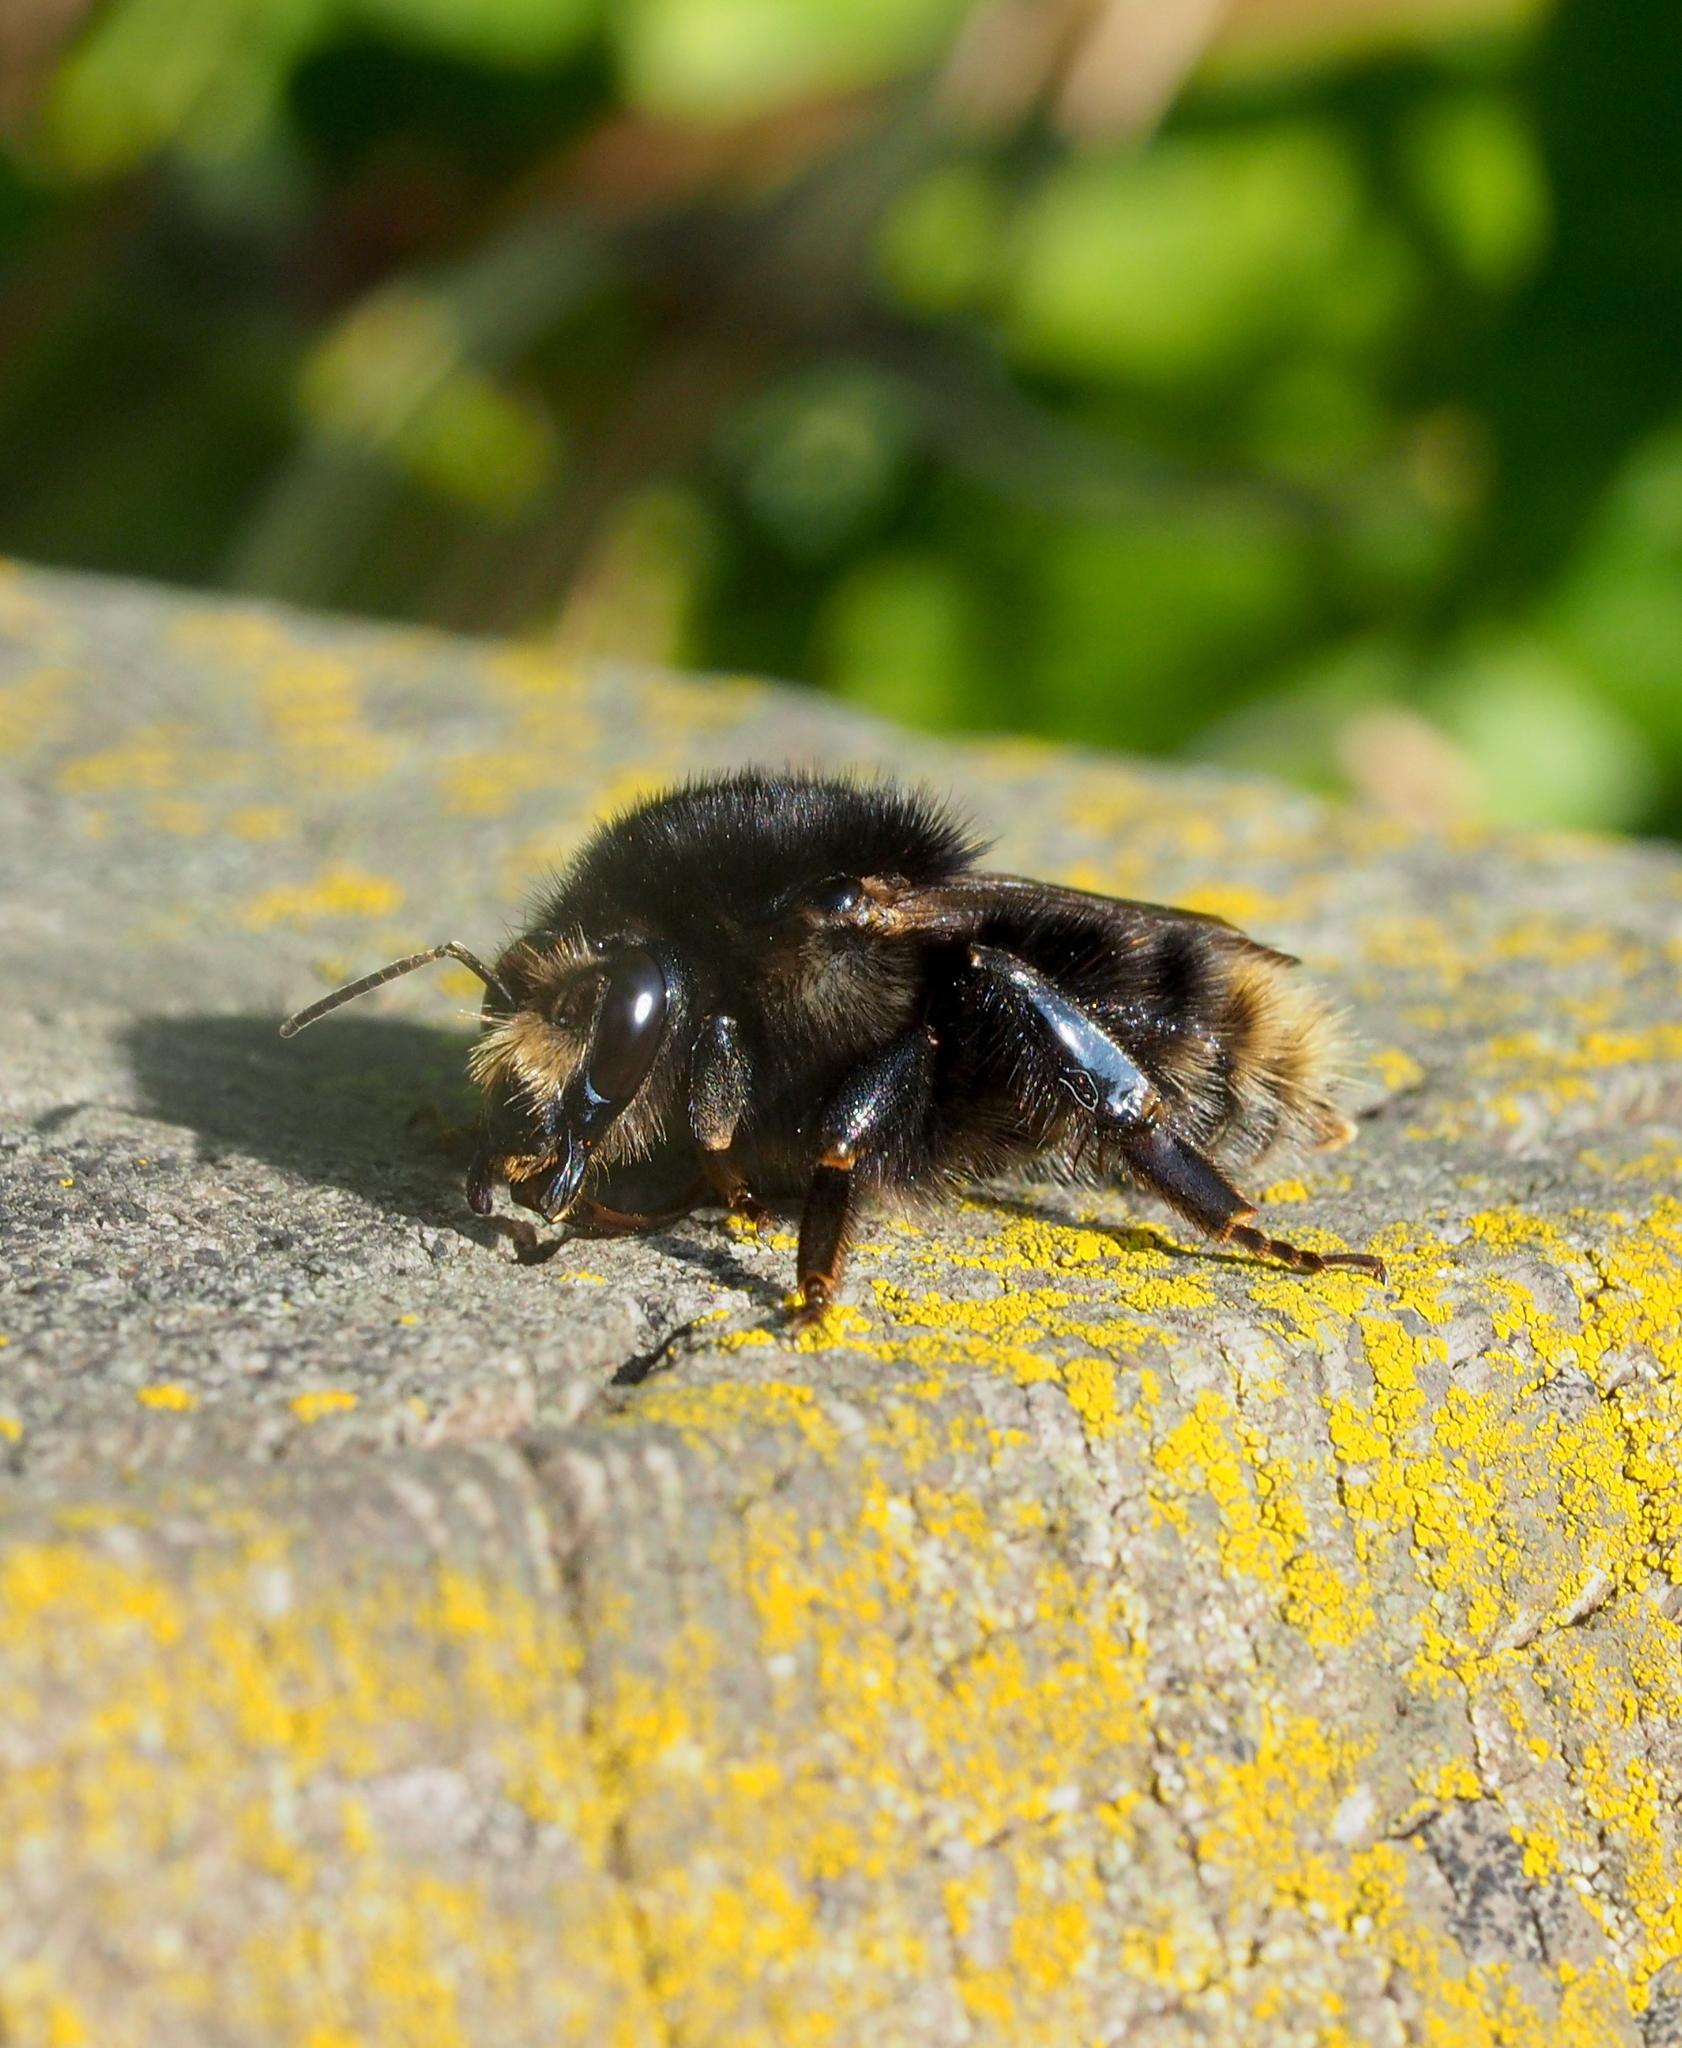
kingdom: Animalia
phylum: Arthropoda
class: Insecta
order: Hymenoptera
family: Apidae
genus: Bombus
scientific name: Bombus humilis
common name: Brown-banded carder-bee
